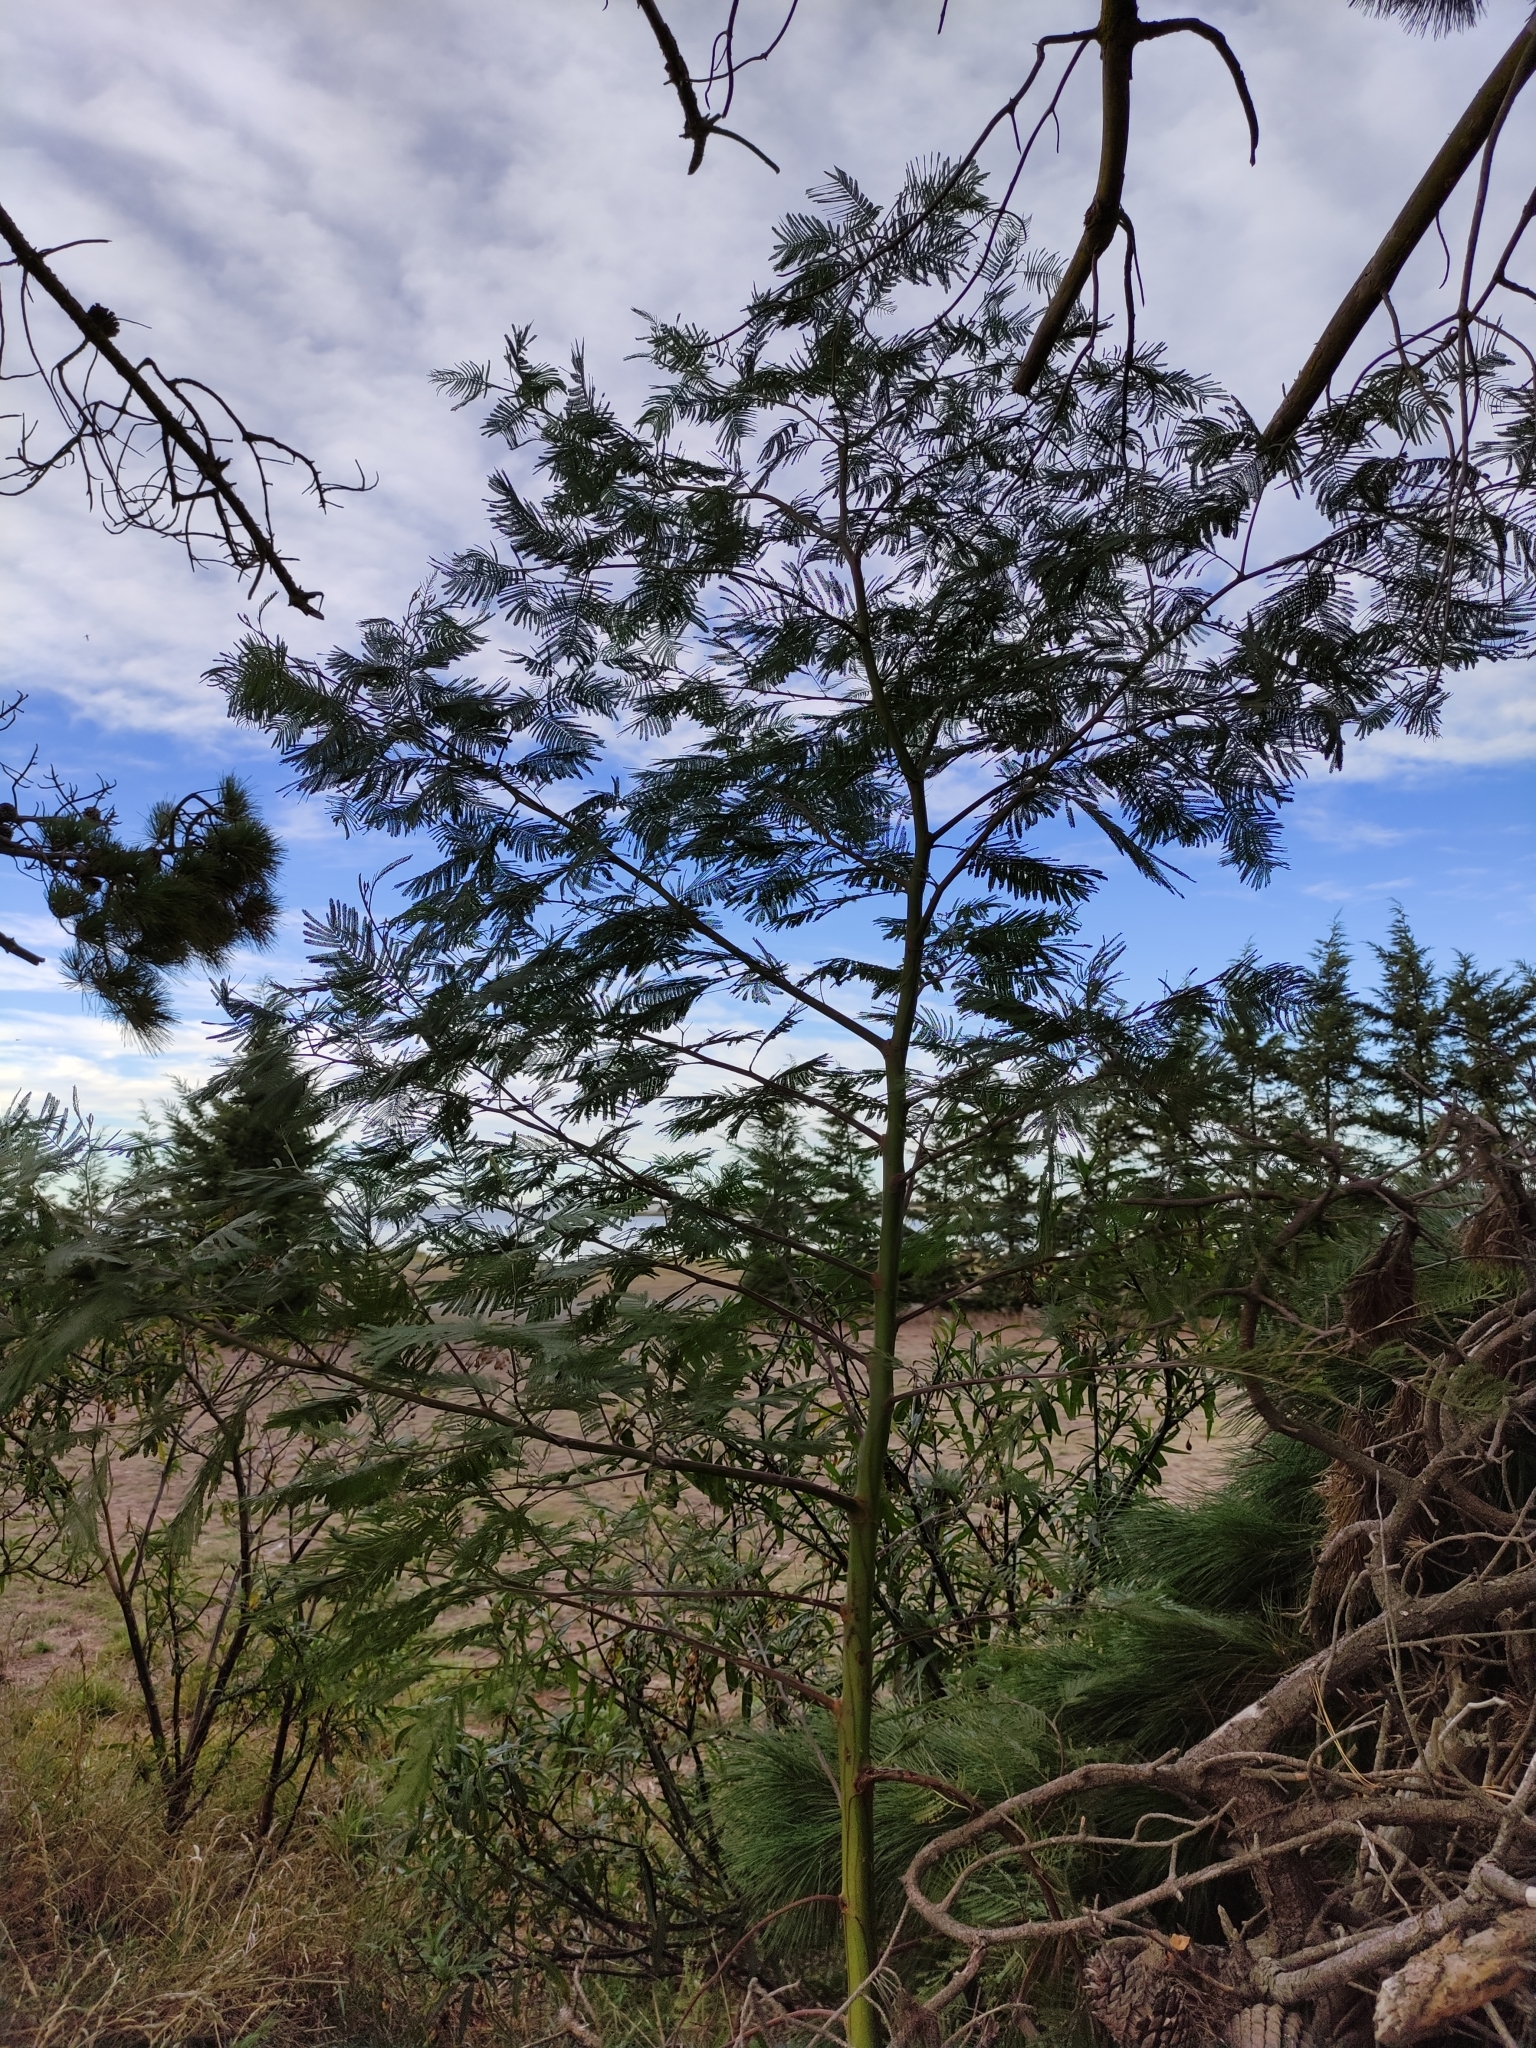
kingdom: Plantae
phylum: Tracheophyta
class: Magnoliopsida
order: Fabales
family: Fabaceae
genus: Acacia
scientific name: Acacia dealbata
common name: Silver wattle
